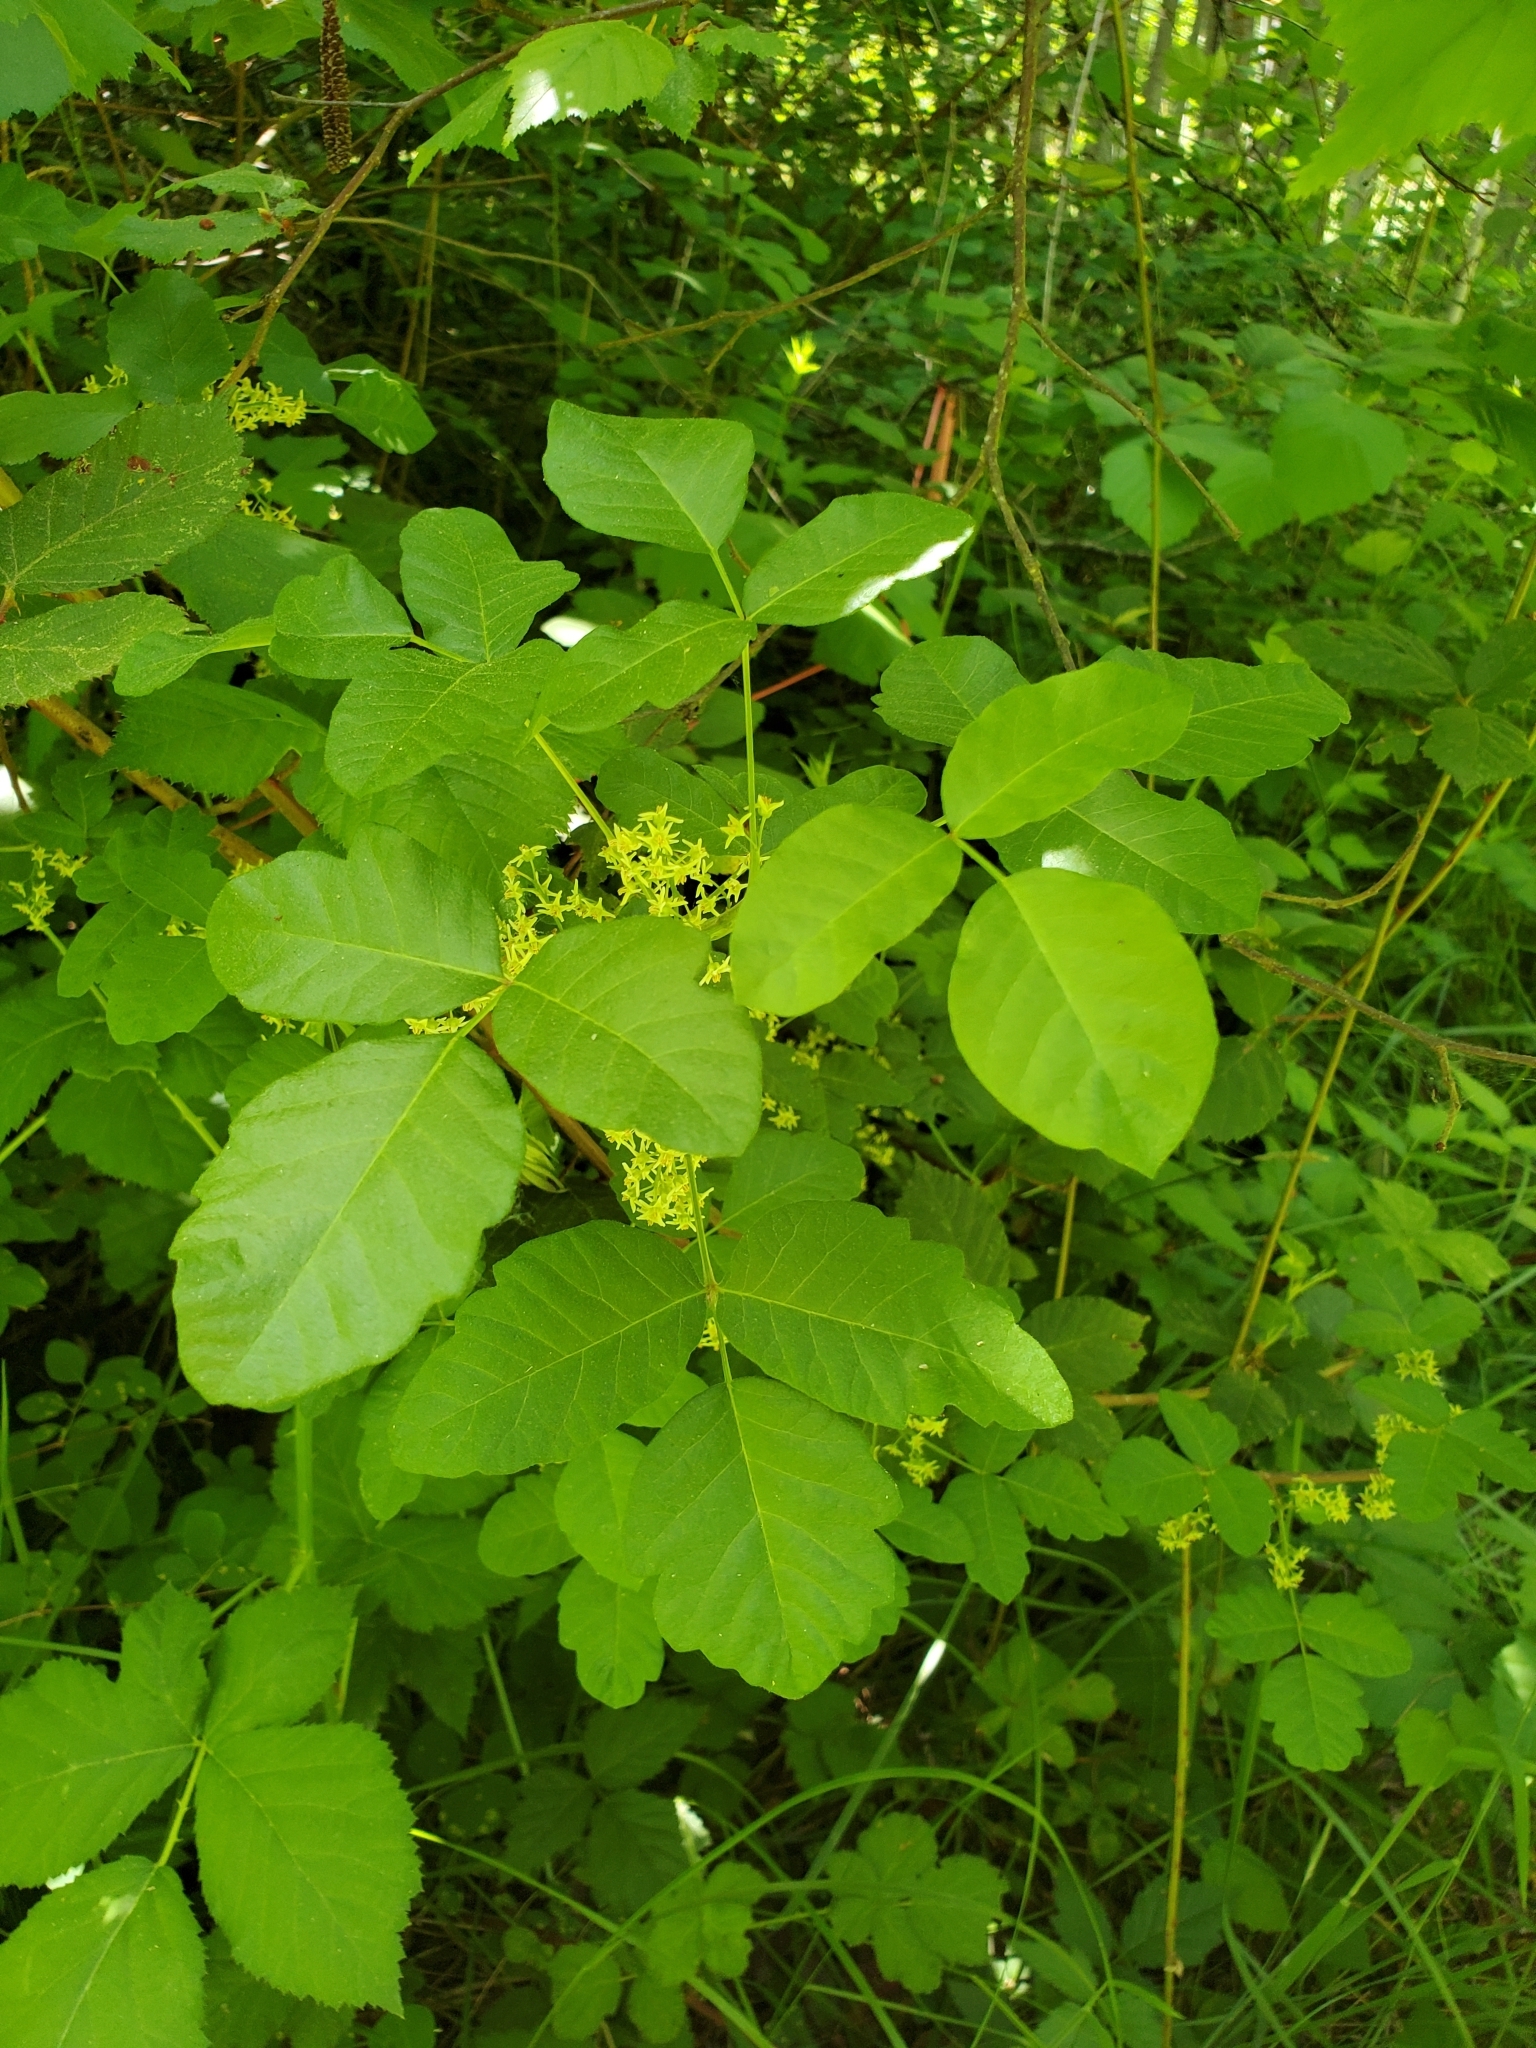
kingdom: Plantae
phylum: Tracheophyta
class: Magnoliopsida
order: Sapindales
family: Anacardiaceae
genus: Toxicodendron
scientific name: Toxicodendron diversilobum
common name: Pacific poison-oak
